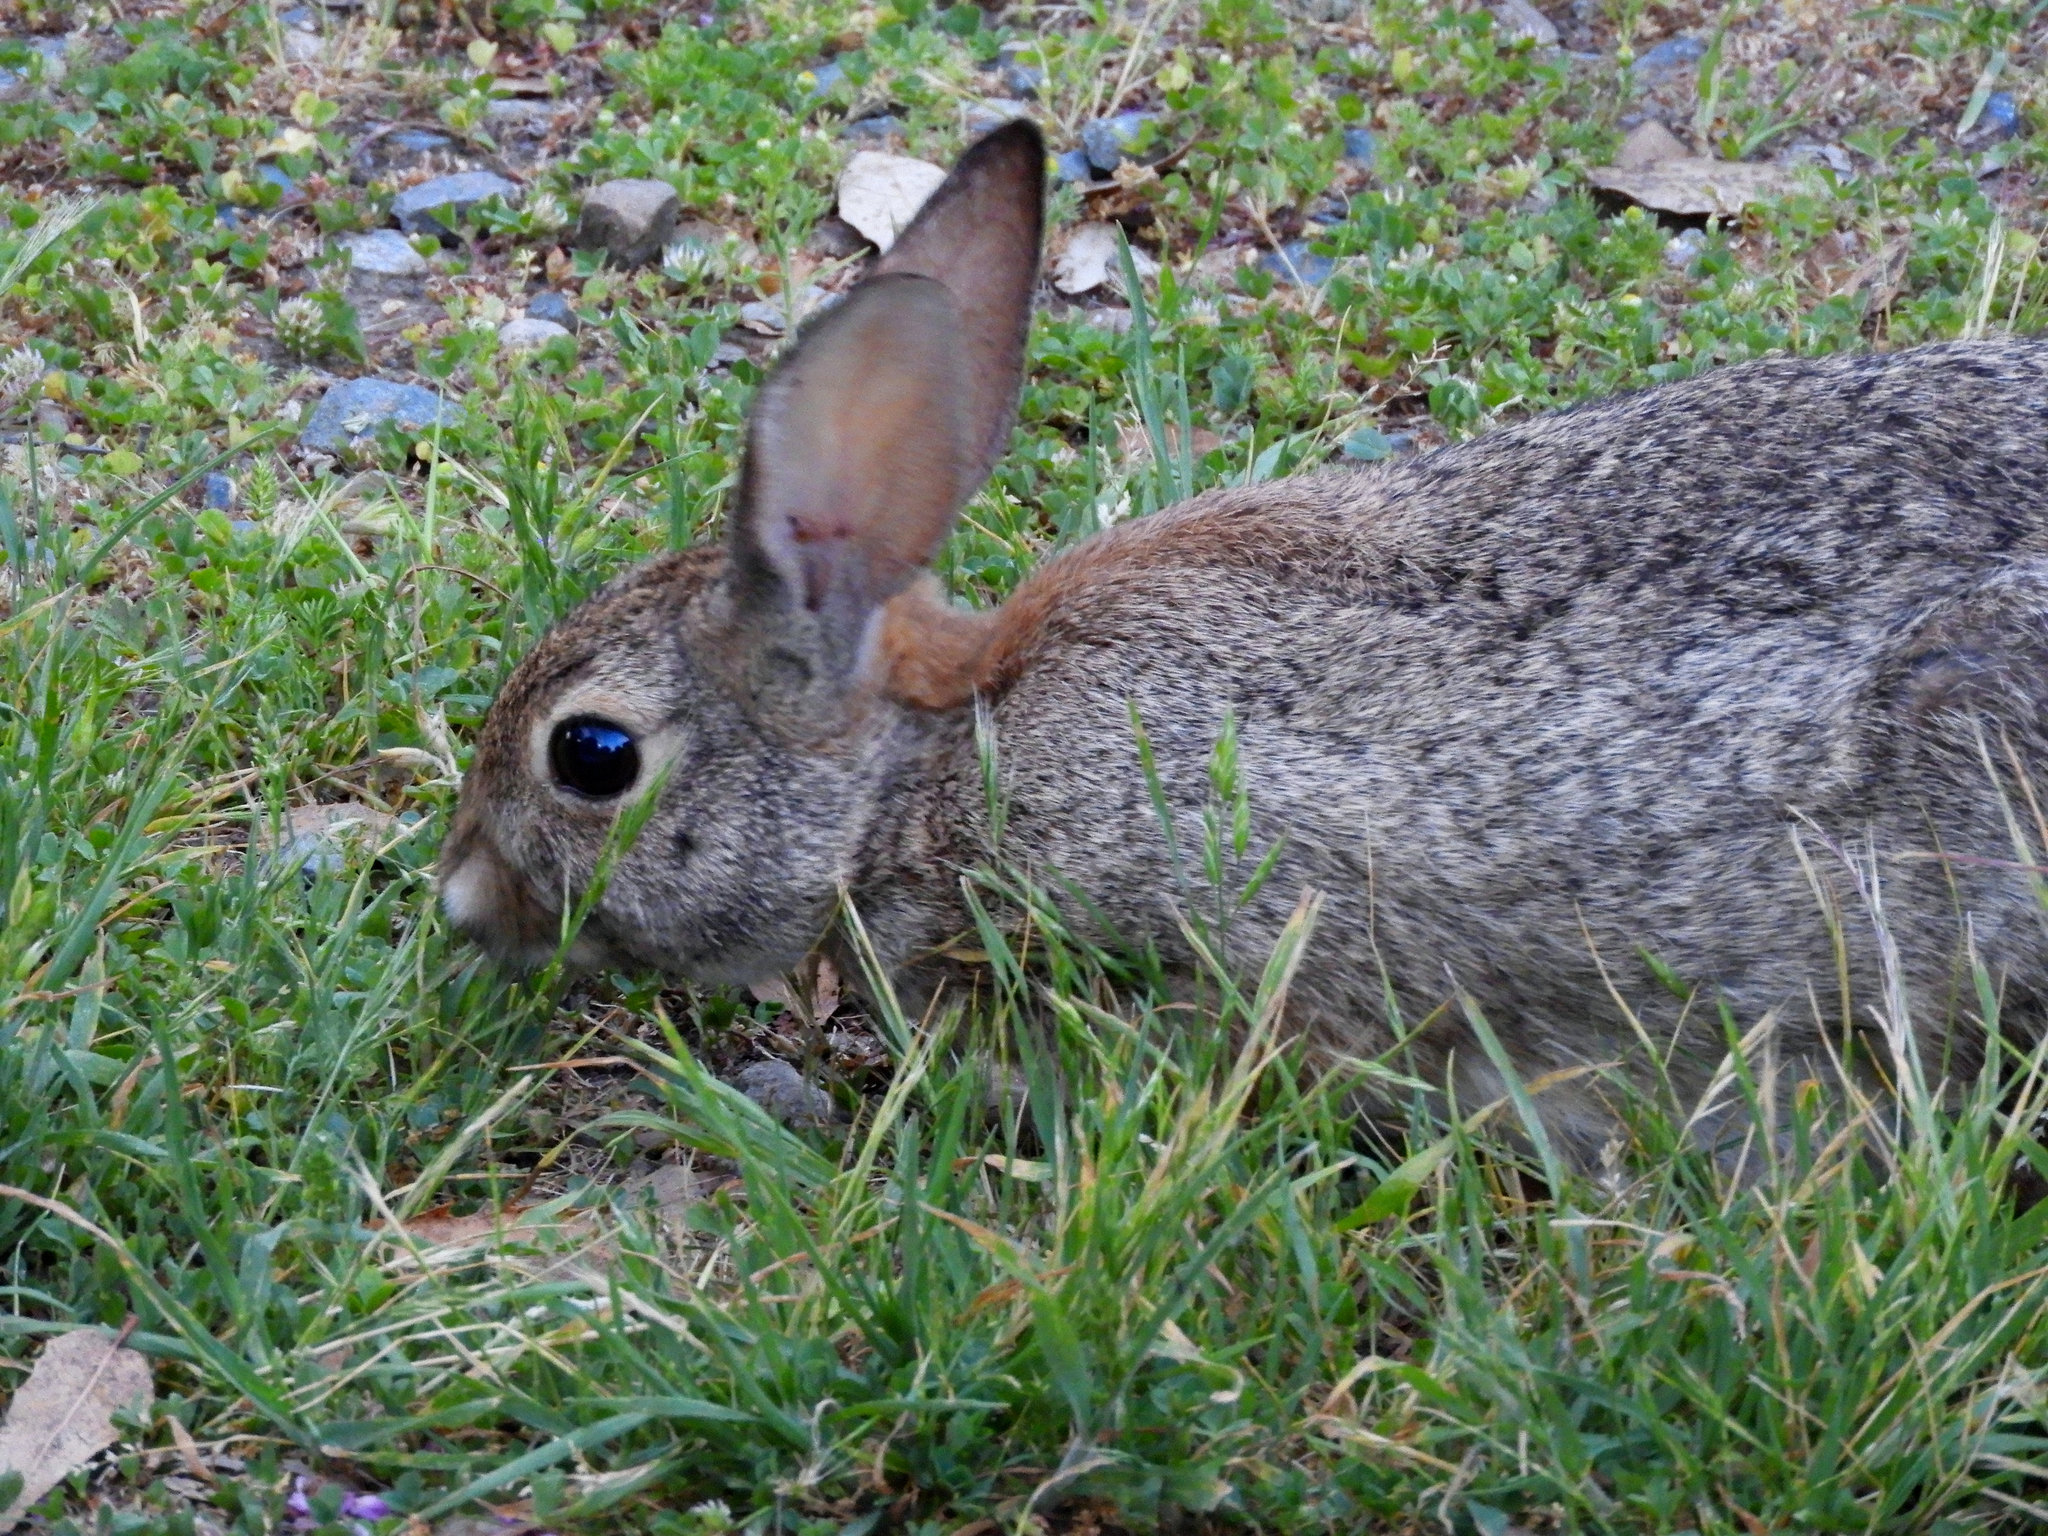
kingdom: Animalia
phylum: Chordata
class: Mammalia
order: Lagomorpha
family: Leporidae
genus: Sylvilagus
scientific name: Sylvilagus audubonii
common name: Desert cottontail
